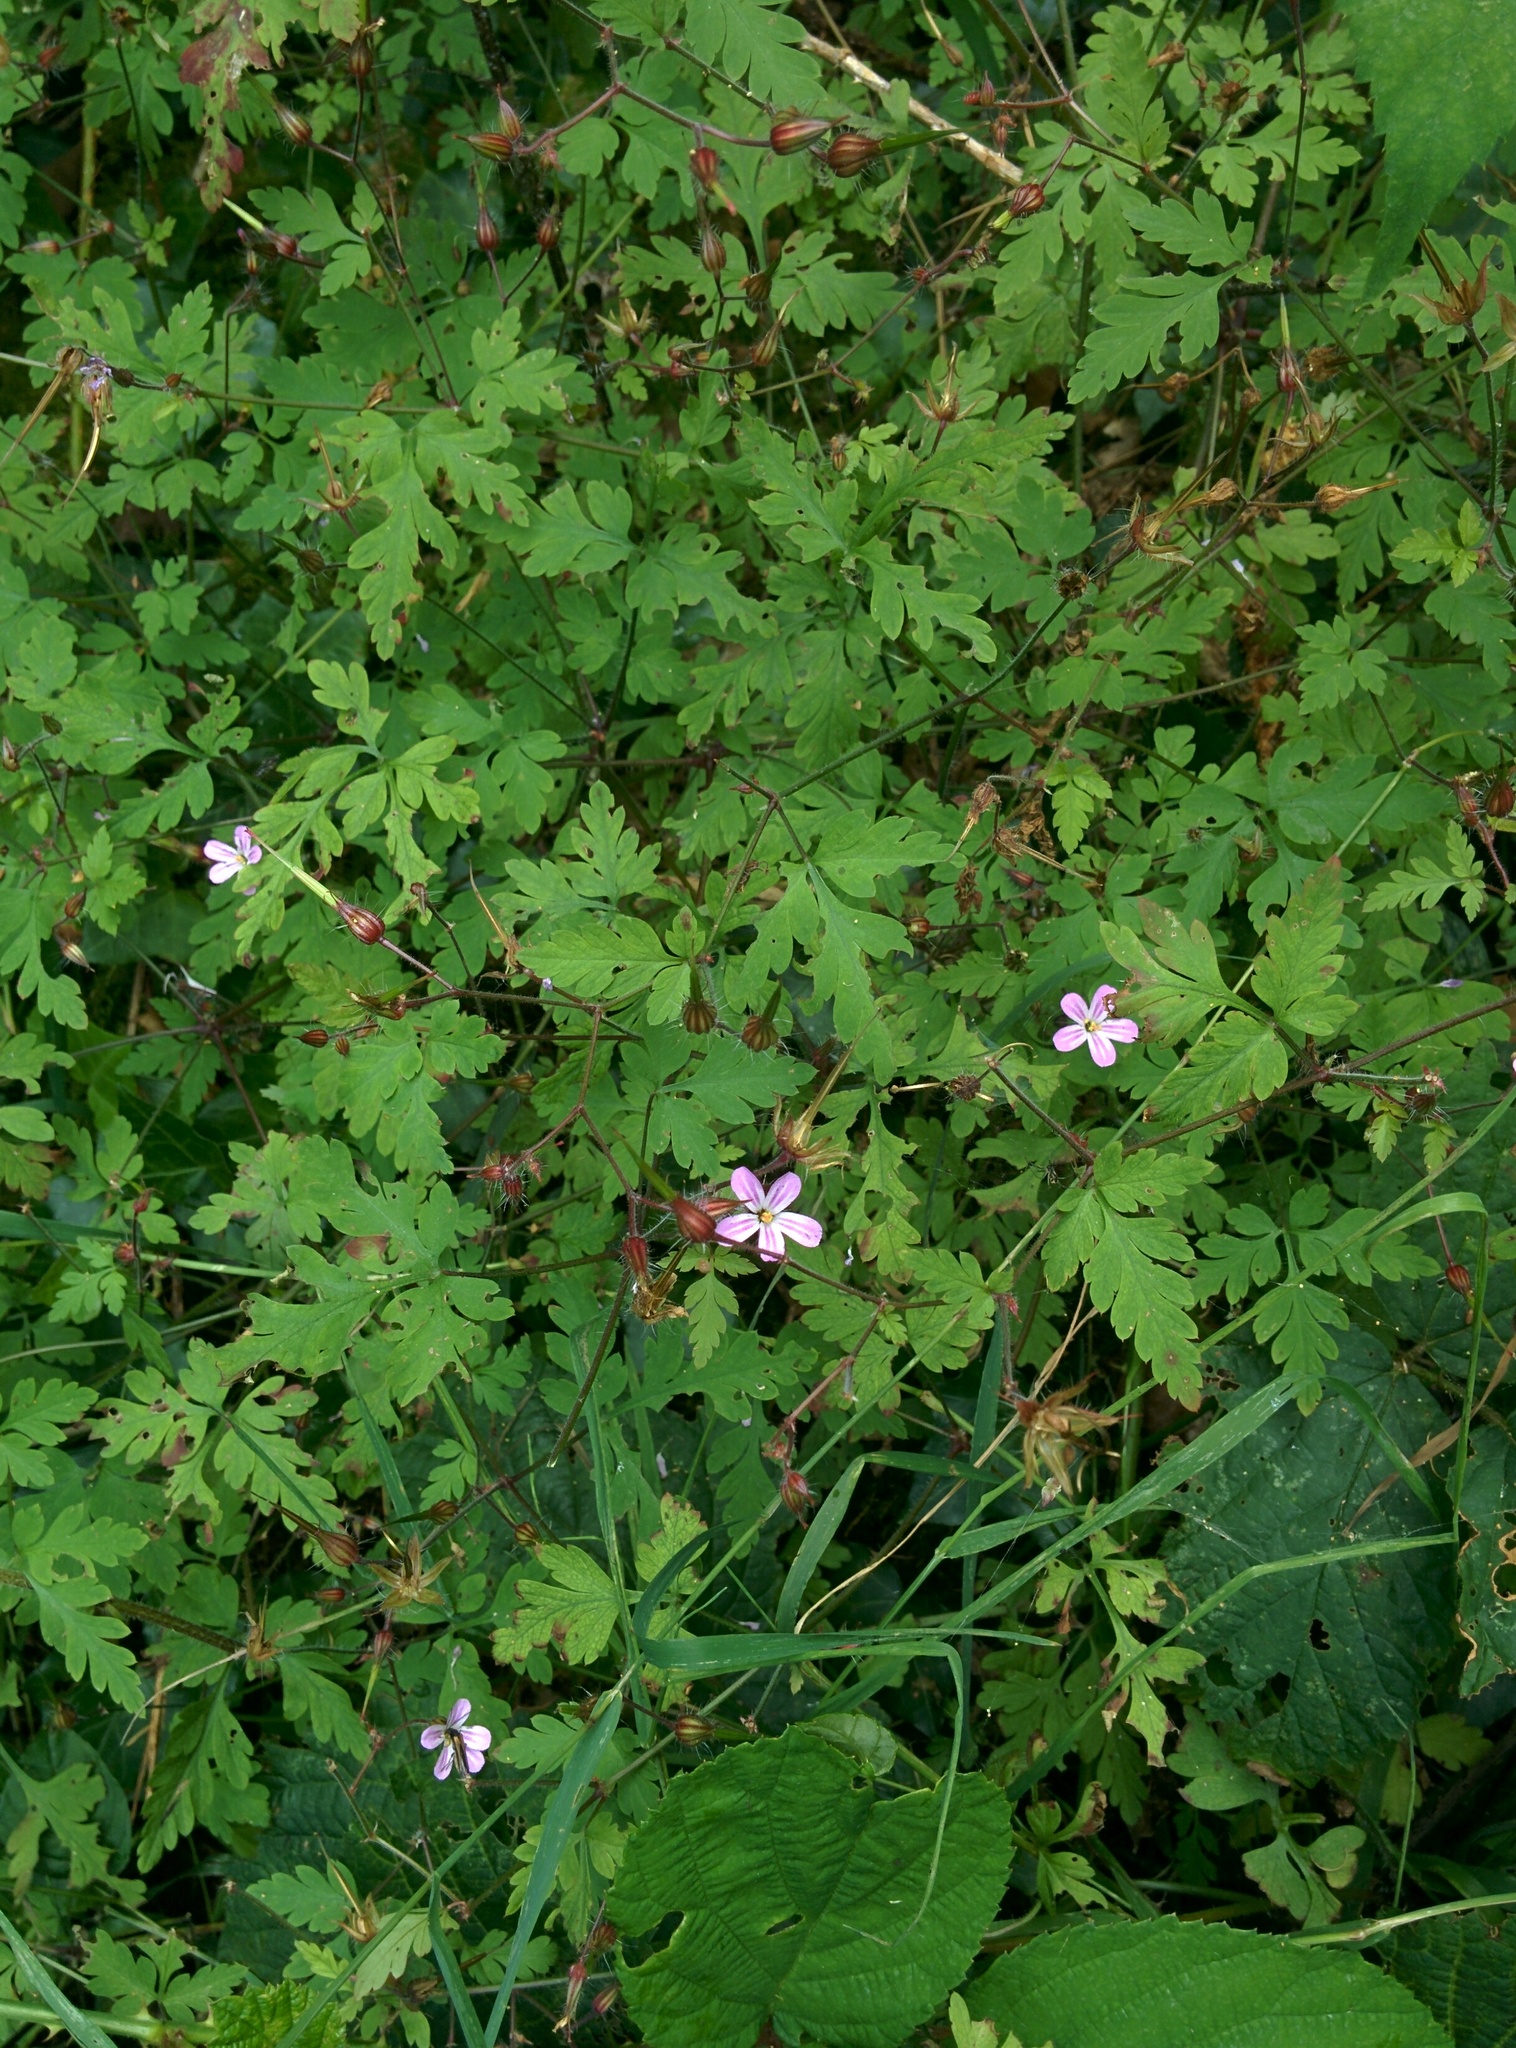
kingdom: Plantae
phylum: Tracheophyta
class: Magnoliopsida
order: Geraniales
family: Geraniaceae
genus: Geranium
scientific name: Geranium robertianum
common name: Herb-robert
